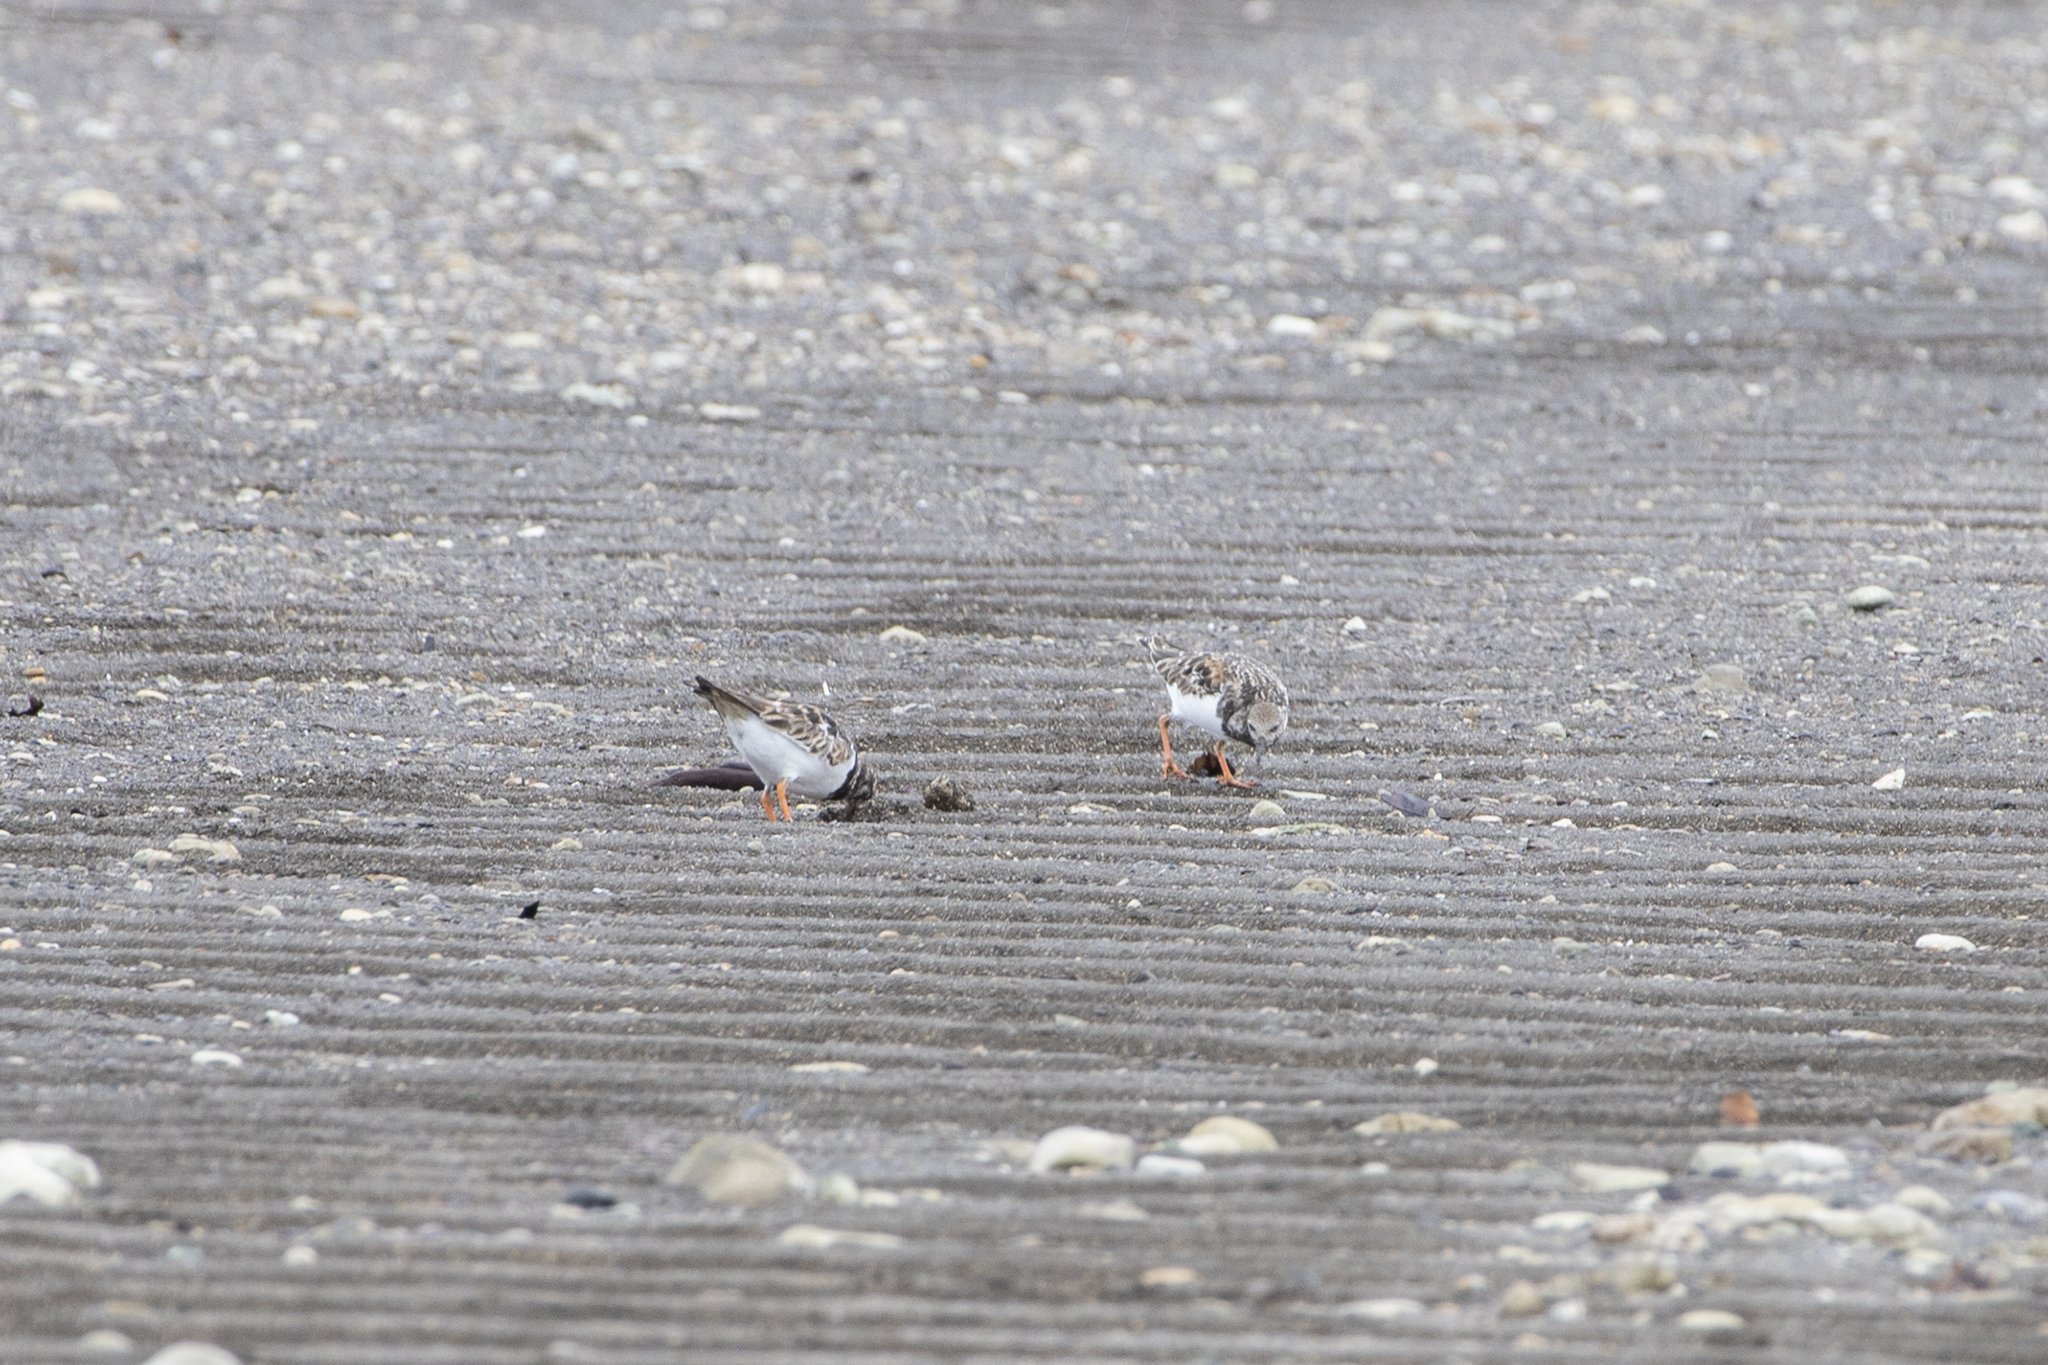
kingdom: Animalia
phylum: Chordata
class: Aves
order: Charadriiformes
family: Scolopacidae
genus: Arenaria
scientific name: Arenaria interpres
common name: Ruddy turnstone
